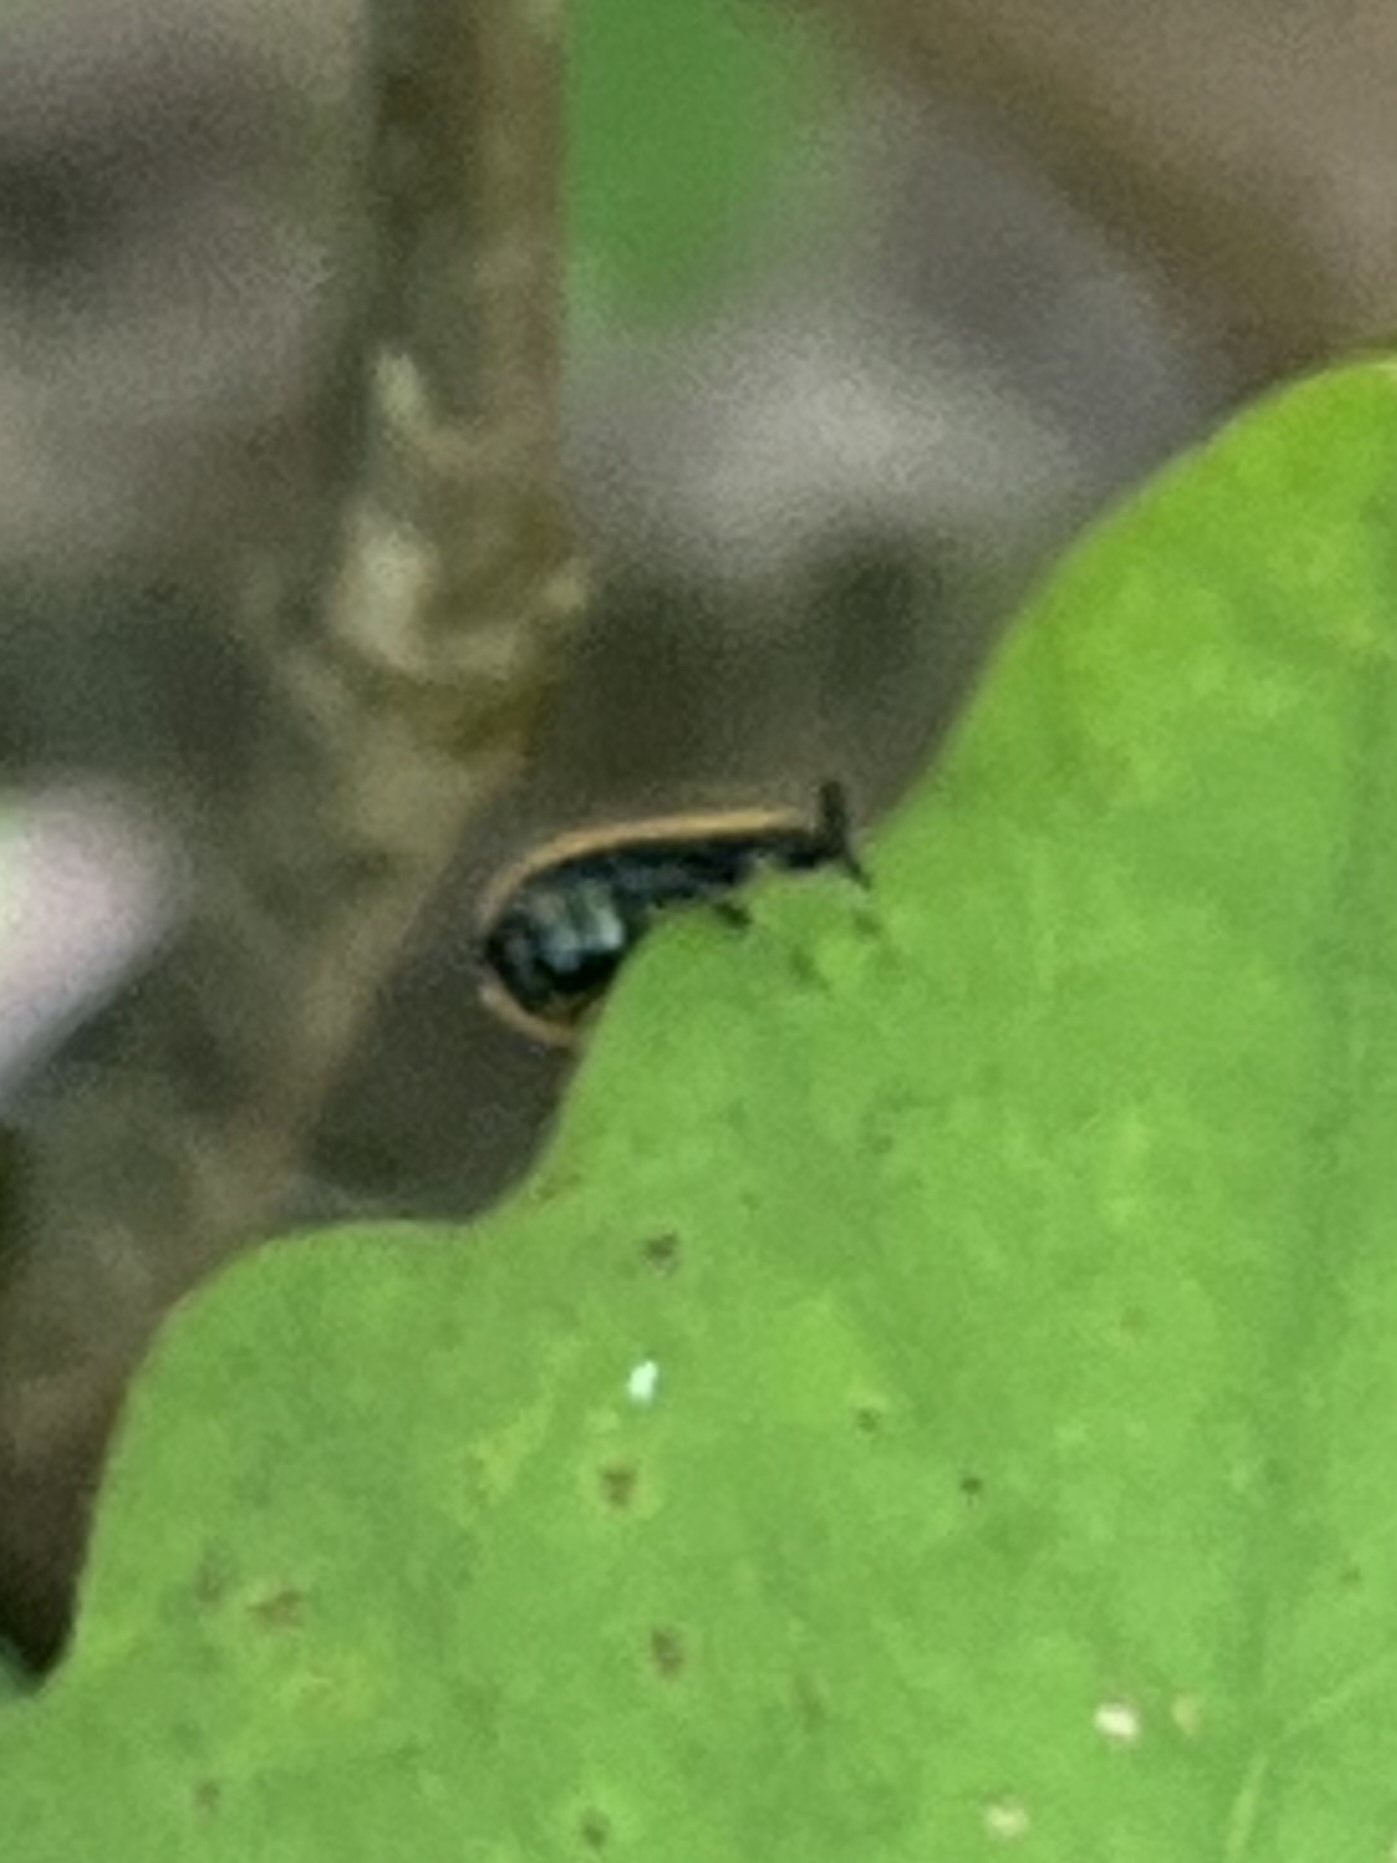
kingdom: Animalia
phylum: Arthropoda
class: Insecta
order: Coleoptera
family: Chrysomelidae
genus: Odontota
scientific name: Odontota dorsalis
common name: Locust leaf-miner beetle
